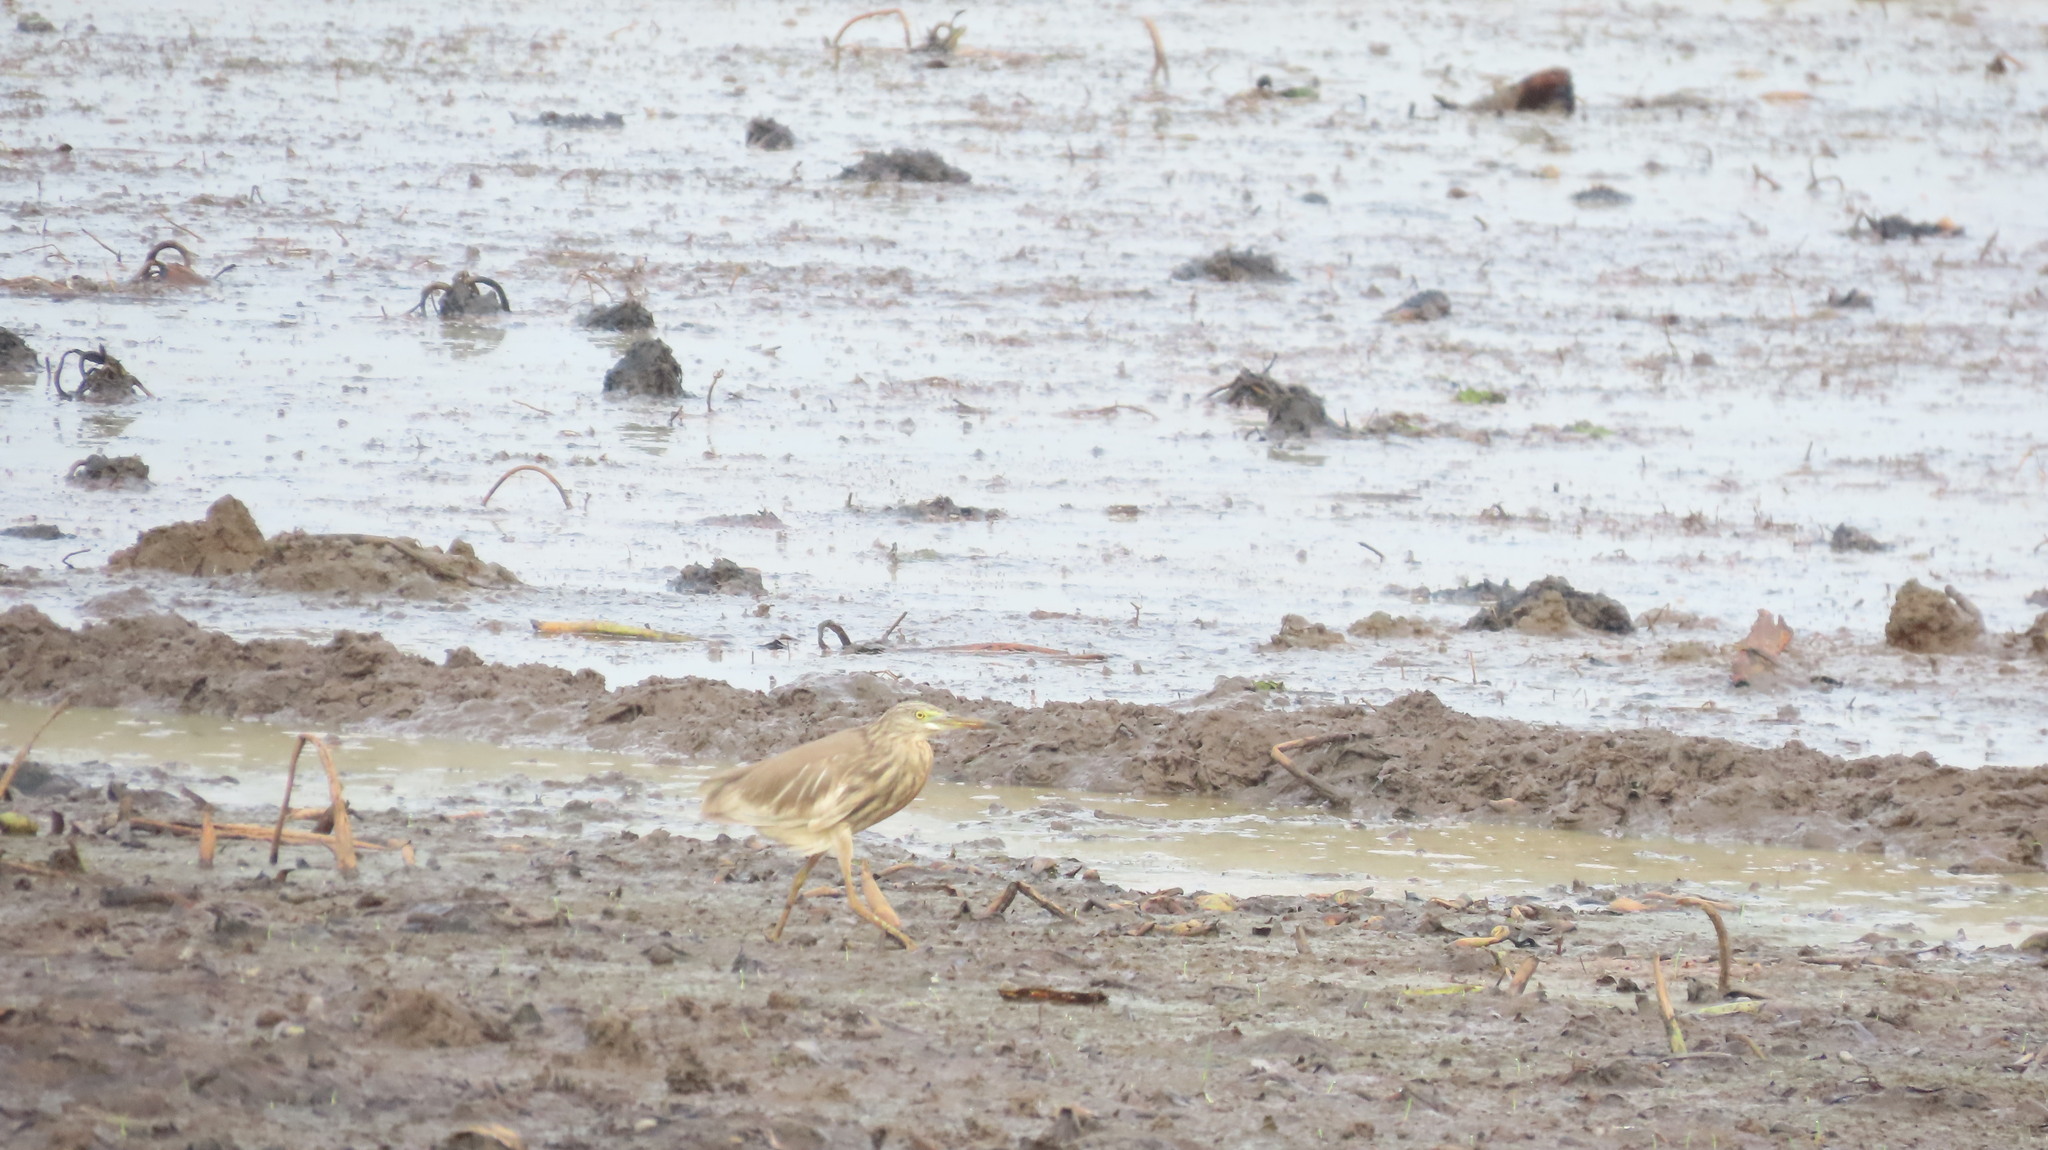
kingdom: Animalia
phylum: Chordata
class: Aves
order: Pelecaniformes
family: Ardeidae
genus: Ardeola
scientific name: Ardeola grayii
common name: Indian pond heron
